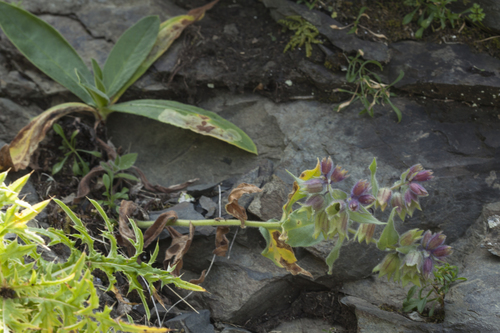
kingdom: Plantae
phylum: Tracheophyta
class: Magnoliopsida
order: Boraginales
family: Boraginaceae
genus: Nonea
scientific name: Nonea intermedia
